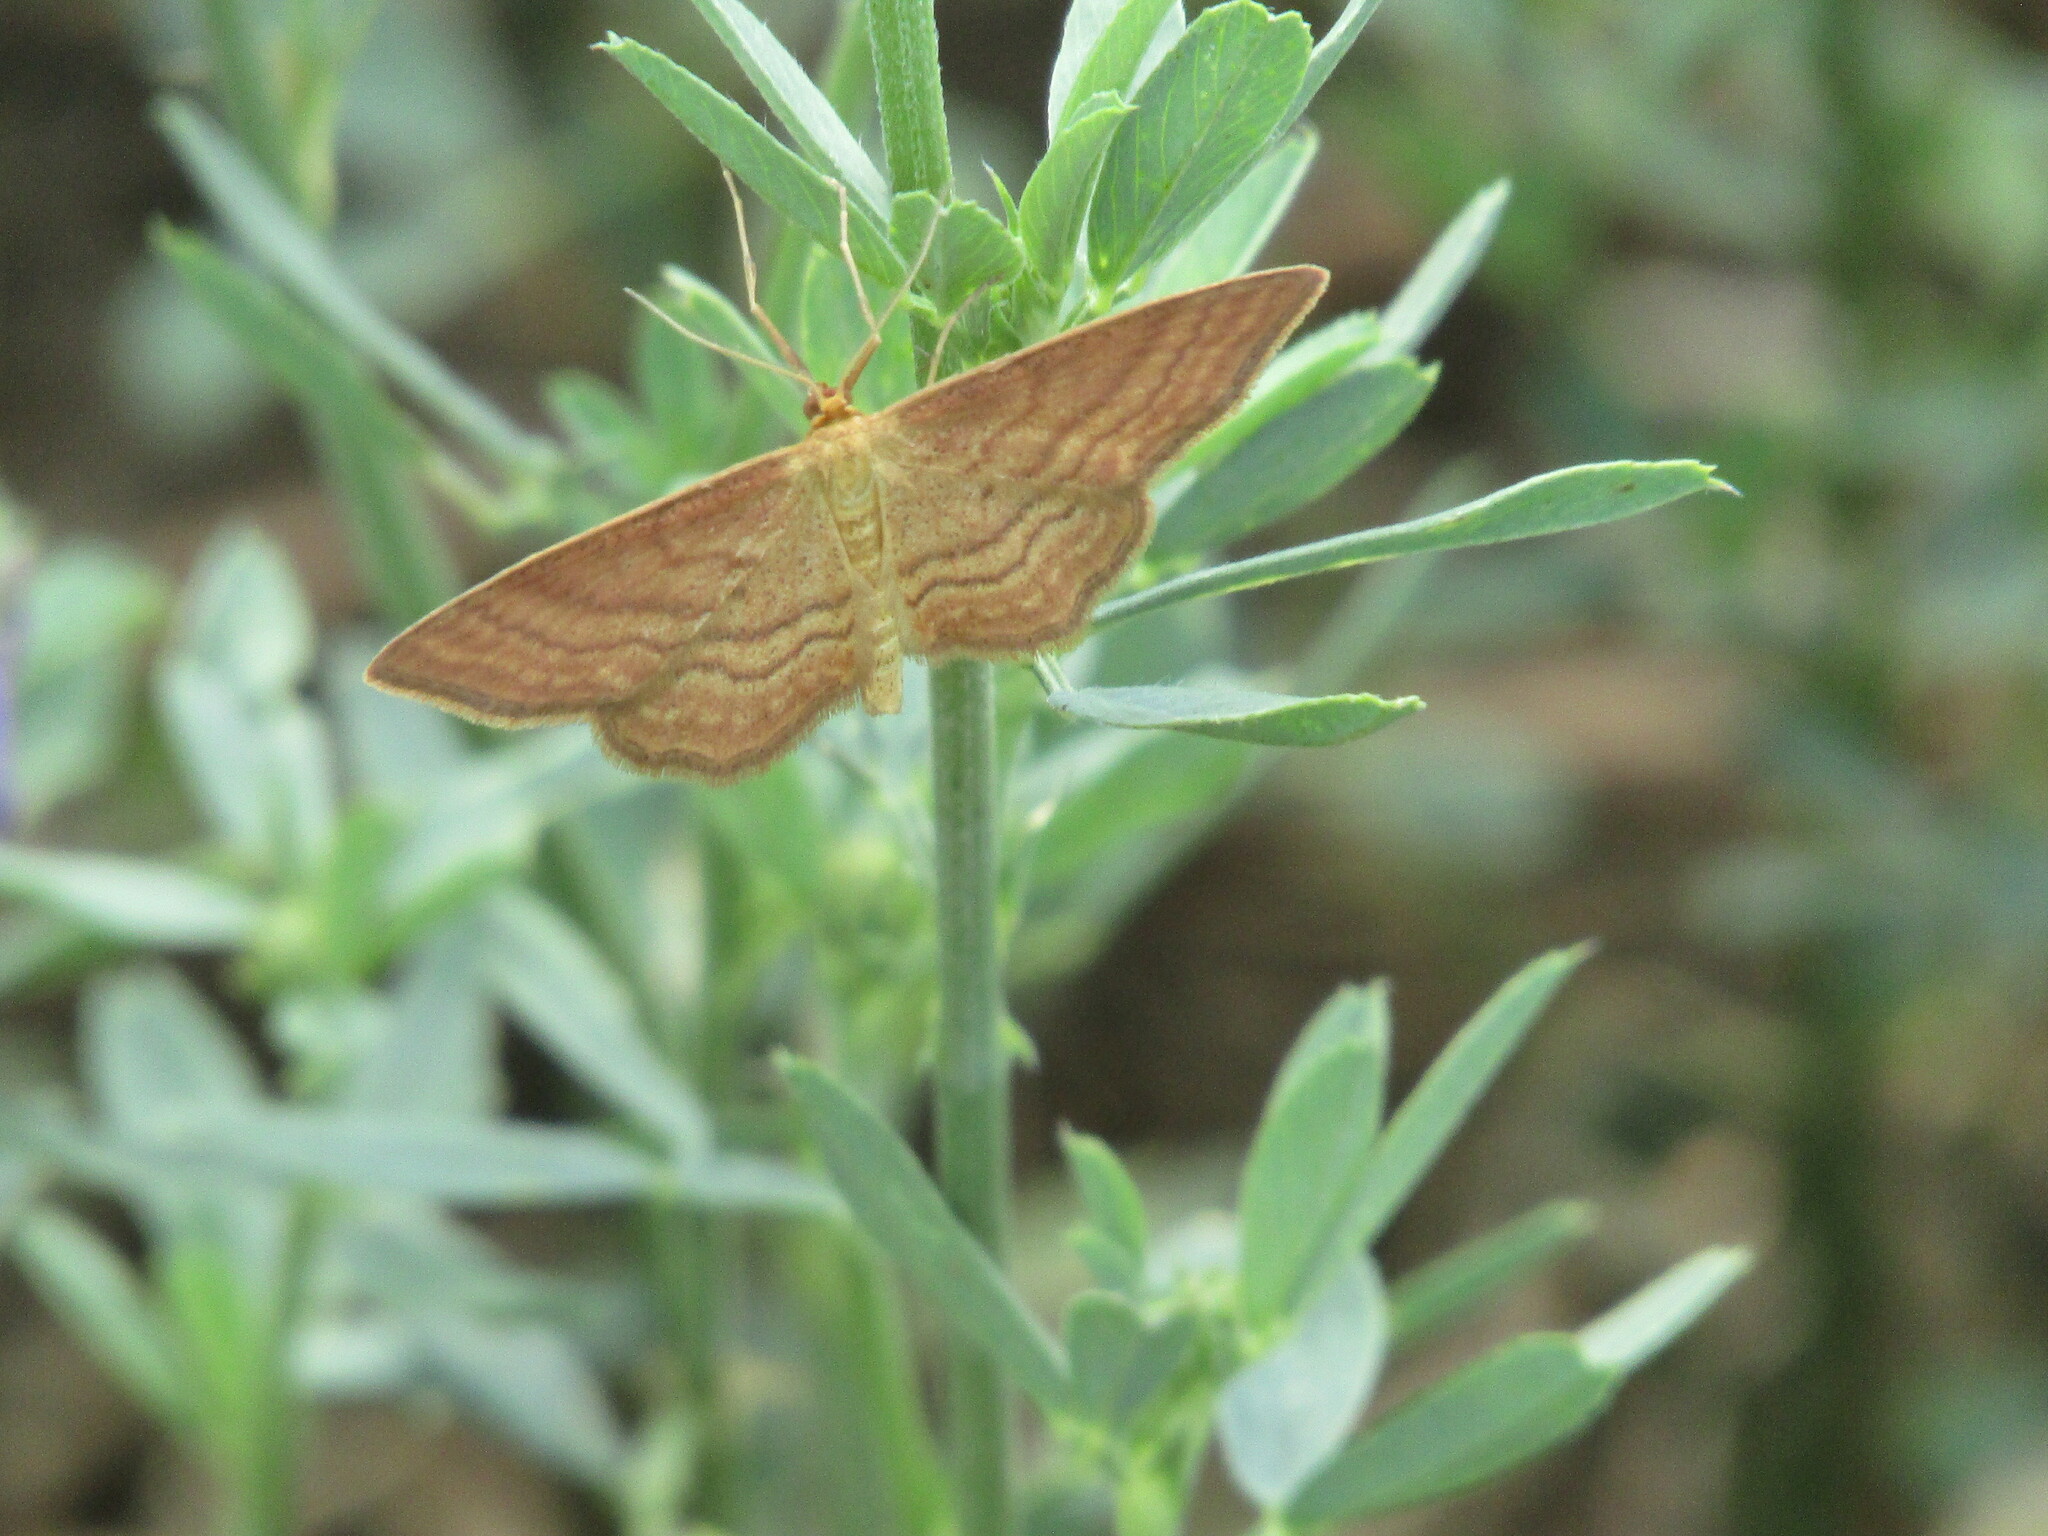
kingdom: Animalia
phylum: Arthropoda
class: Insecta
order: Lepidoptera
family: Geometridae
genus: Idaea
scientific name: Idaea ochrata
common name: Bright wave
